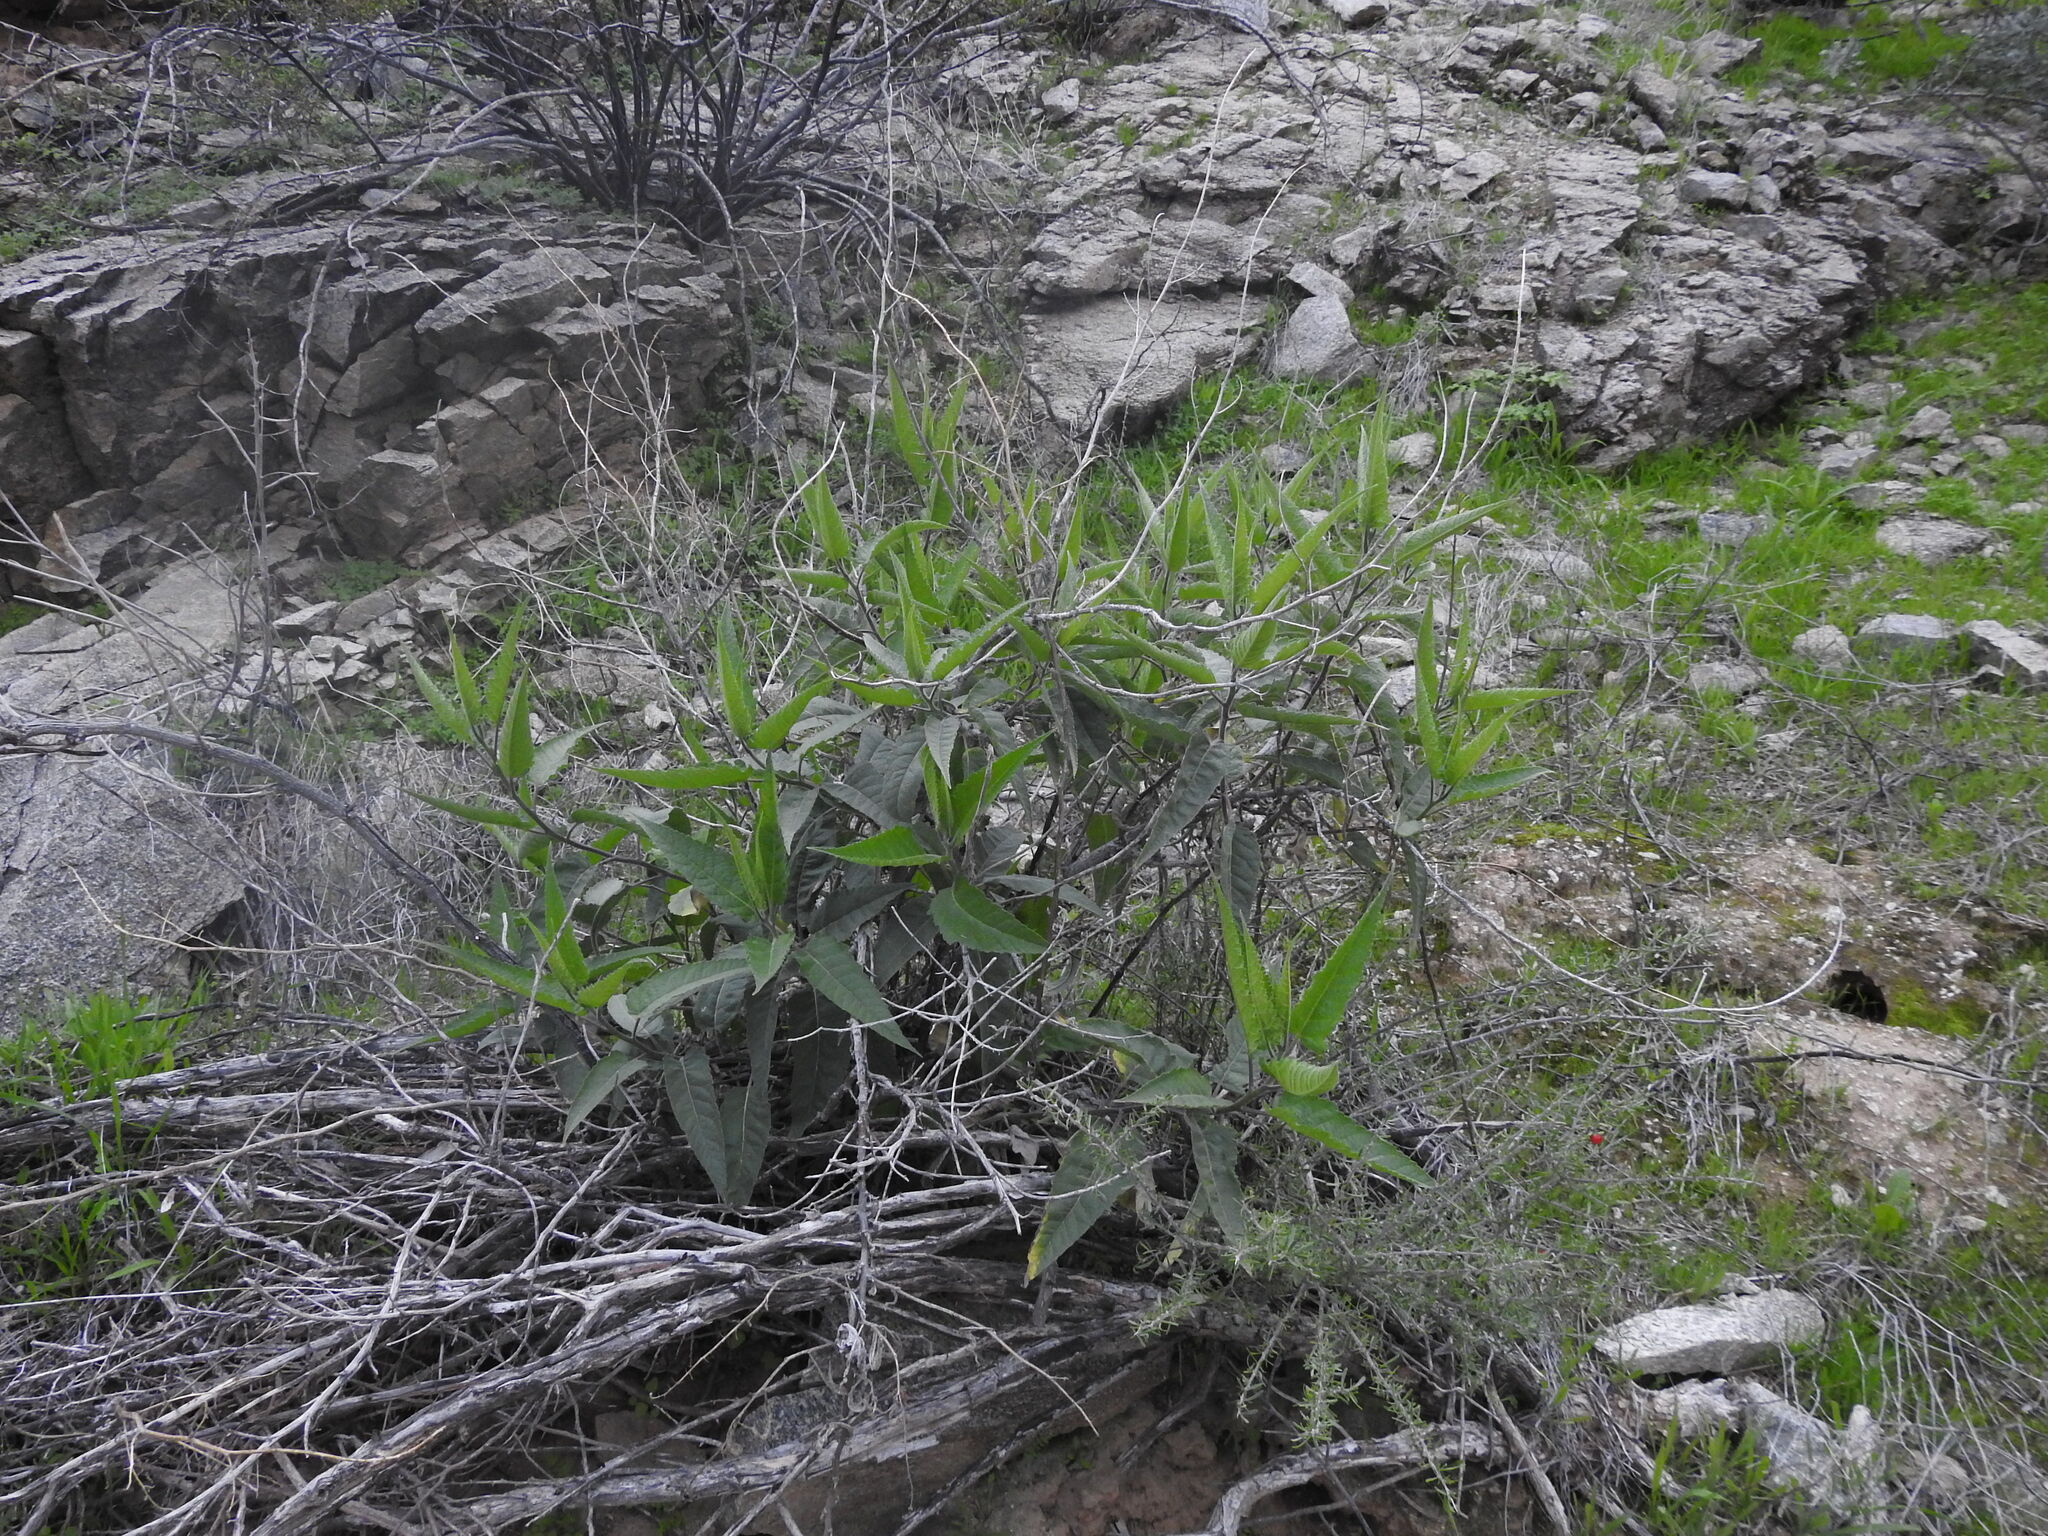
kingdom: Plantae
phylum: Tracheophyta
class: Magnoliopsida
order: Asterales
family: Asteraceae
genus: Ambrosia
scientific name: Ambrosia ambrosioides
